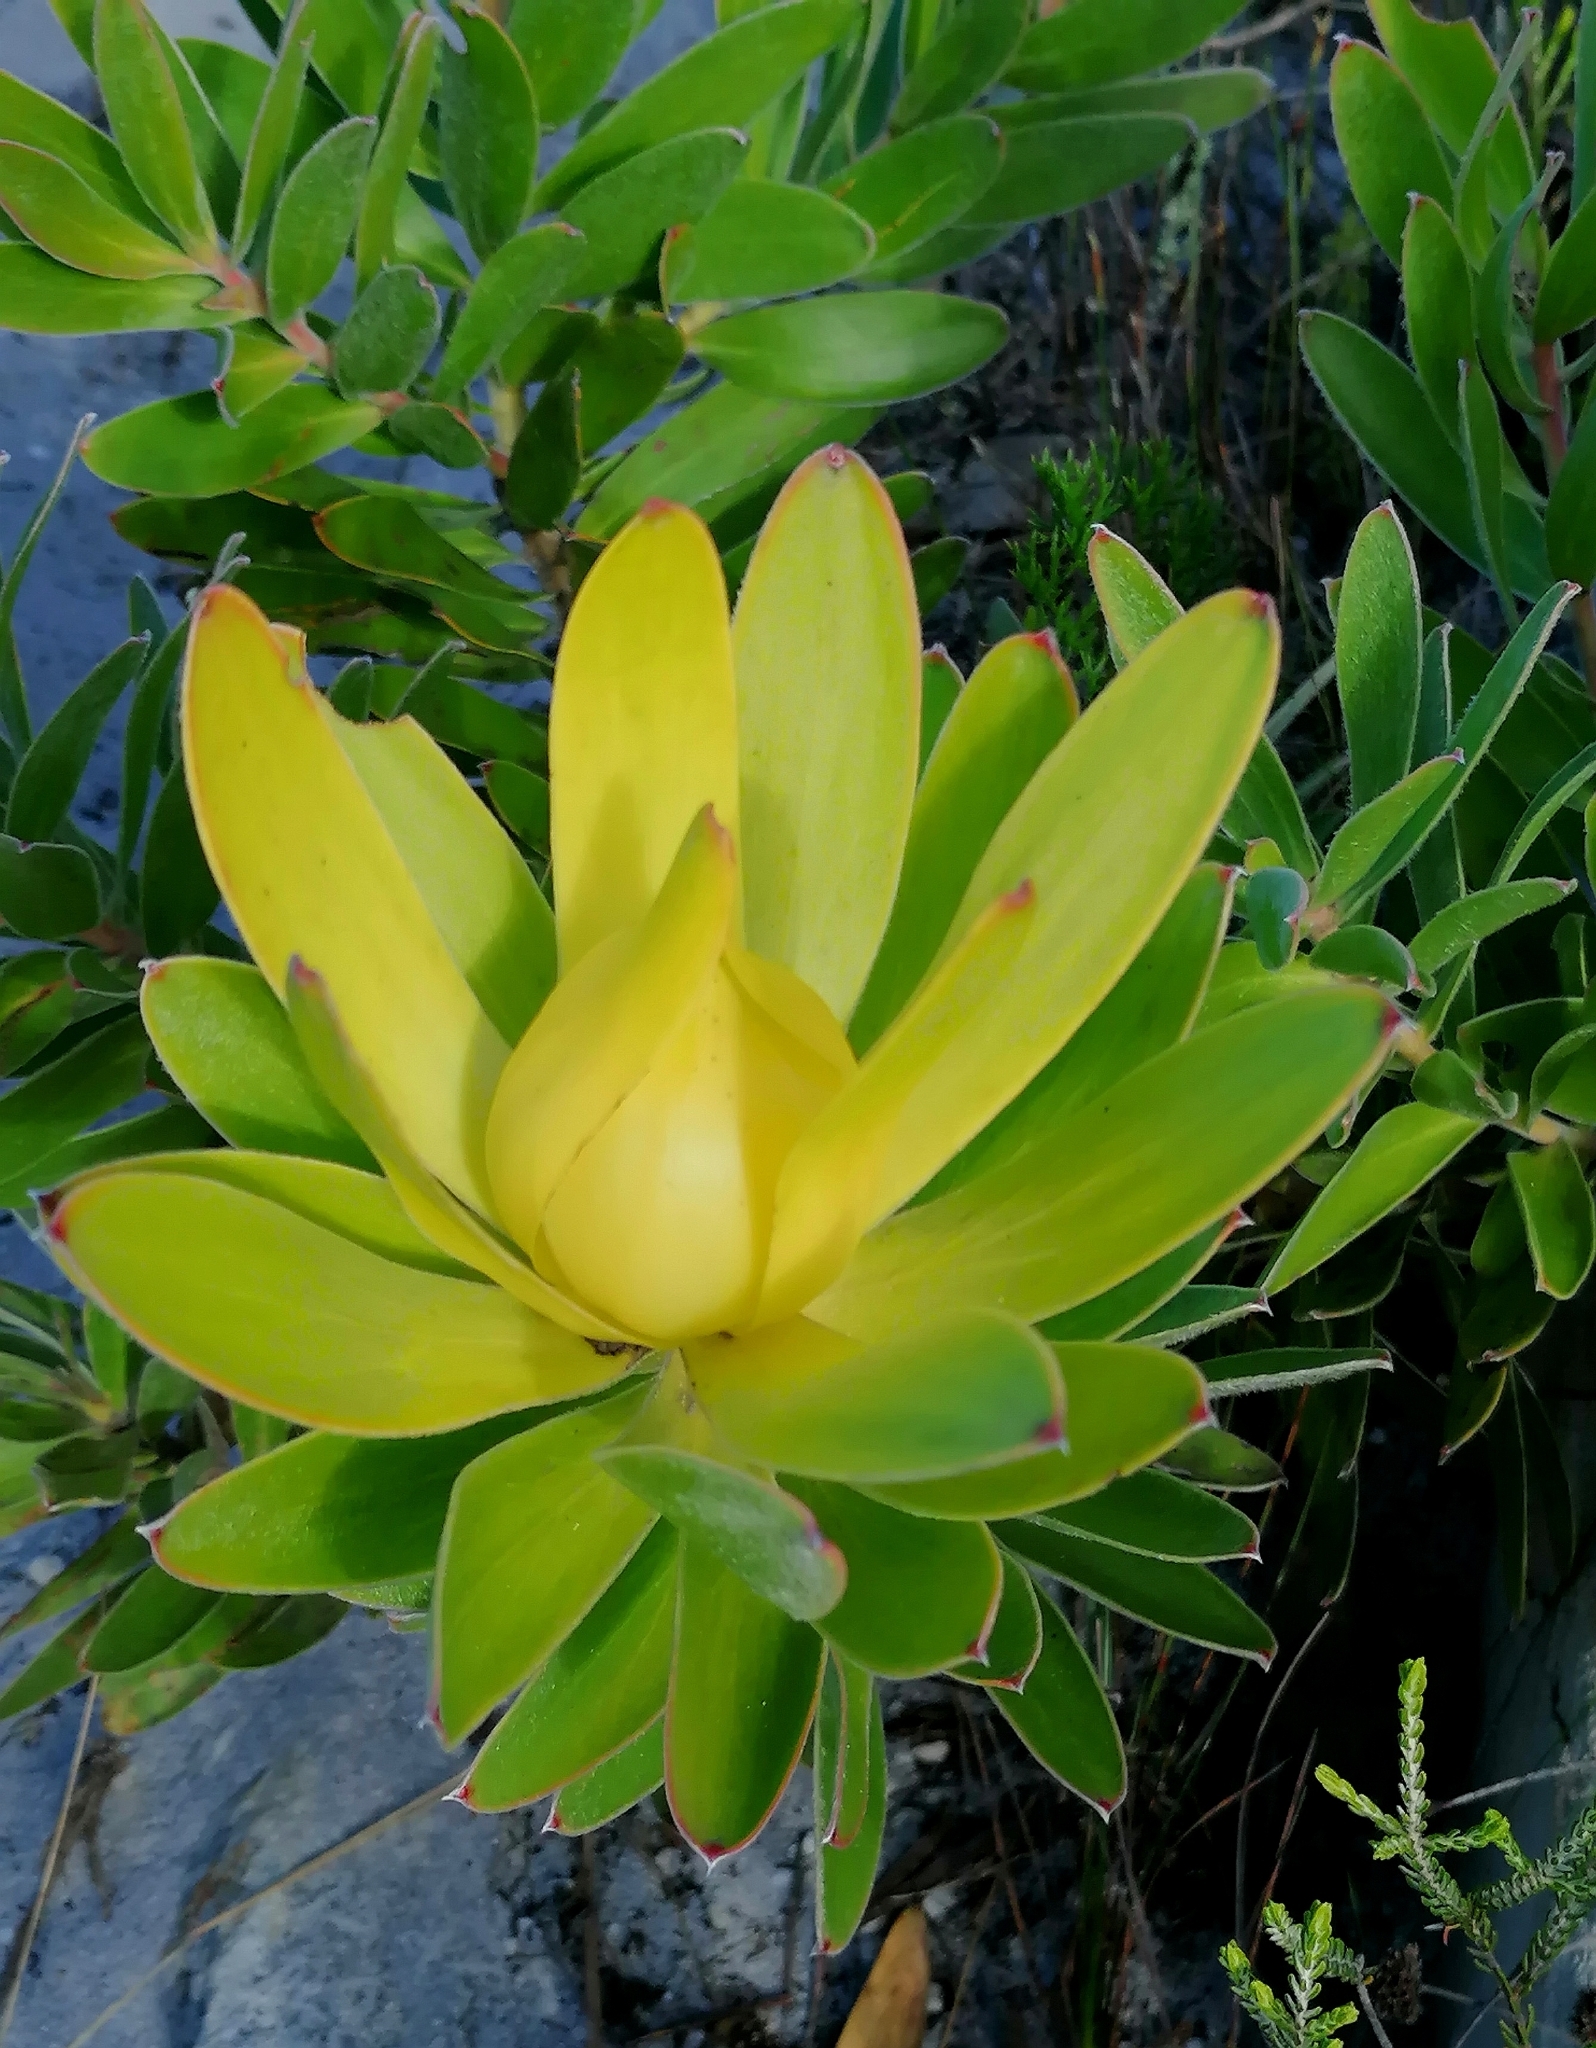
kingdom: Plantae
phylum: Tracheophyta
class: Magnoliopsida
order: Proteales
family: Proteaceae
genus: Leucadendron
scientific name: Leucadendron laureolum
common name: Golden sunshinebush
